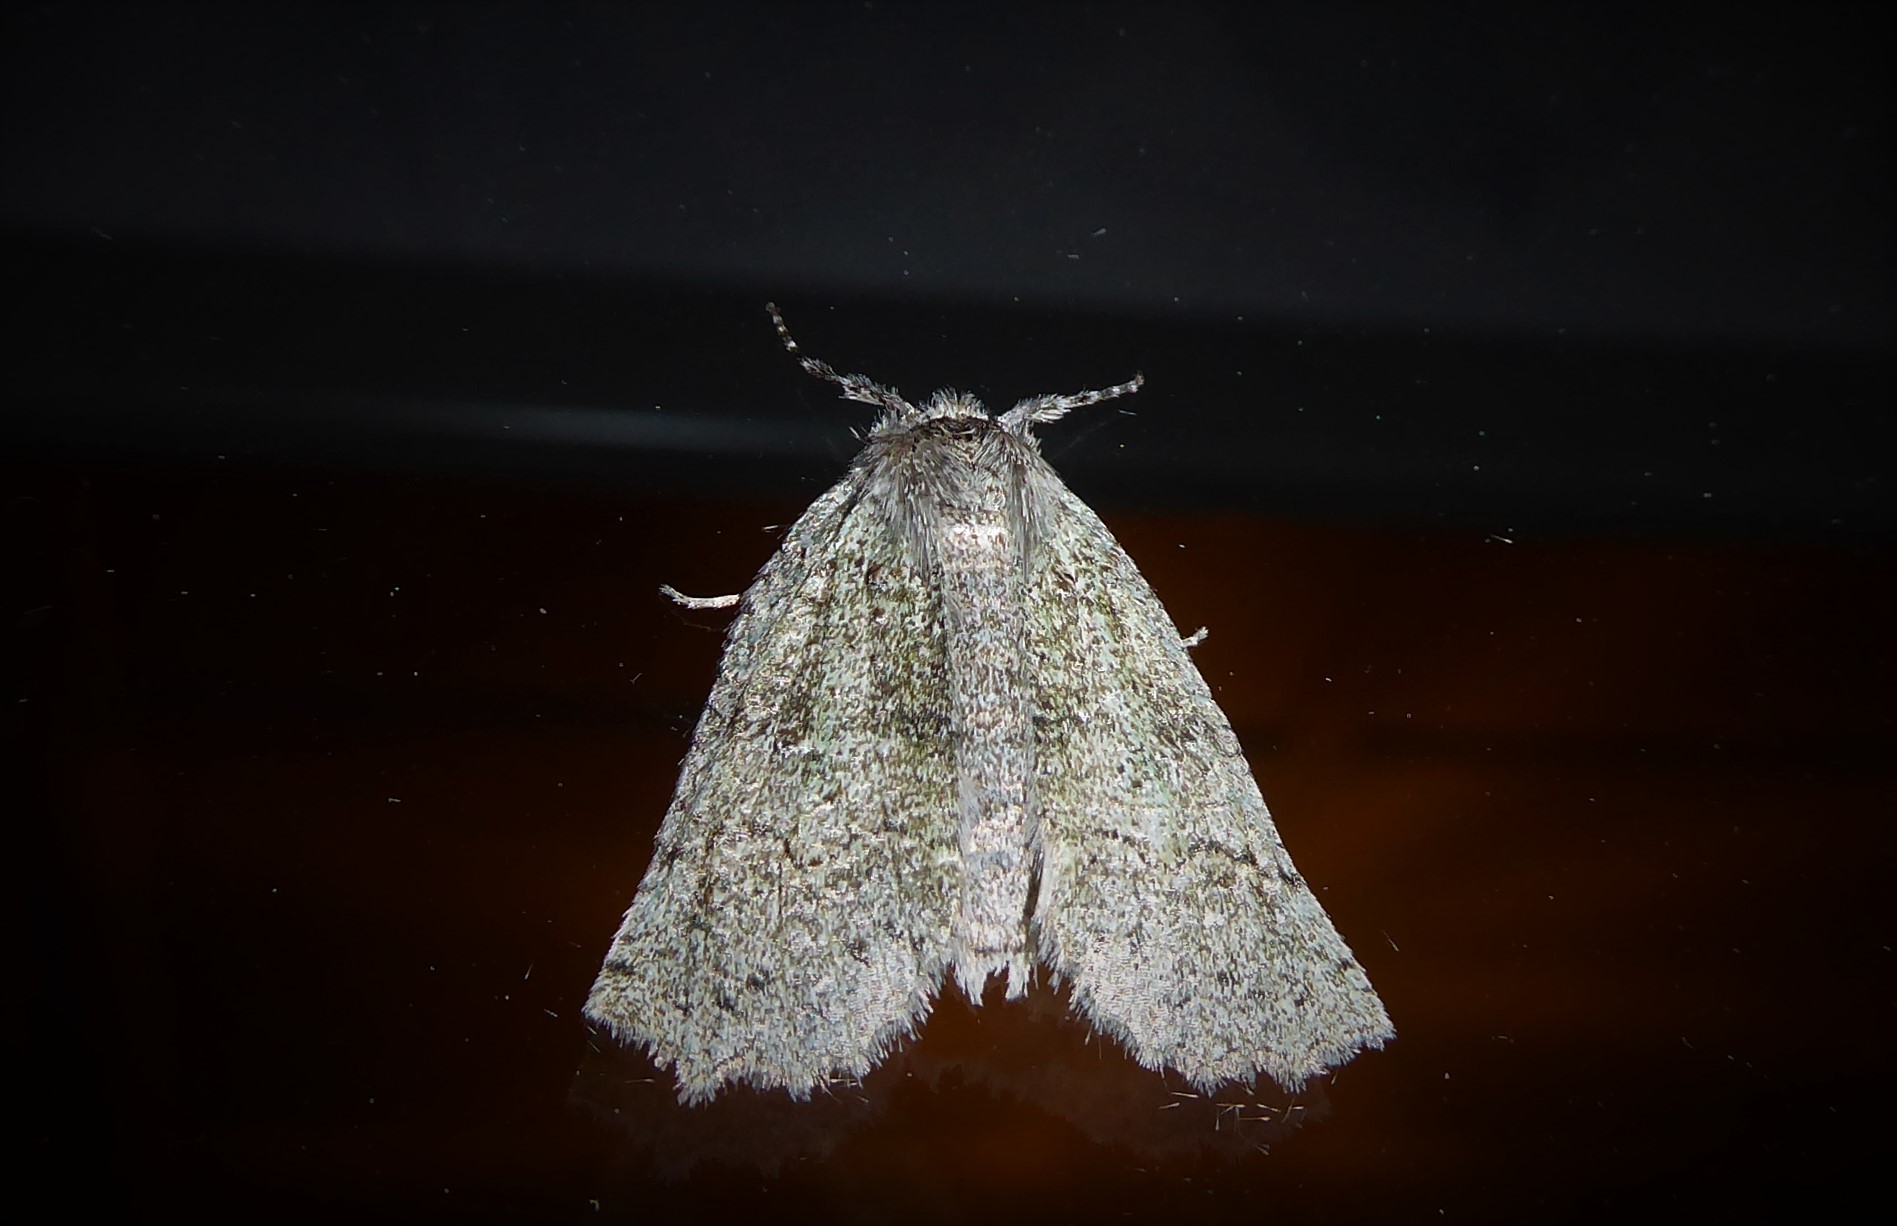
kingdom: Animalia
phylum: Arthropoda
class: Insecta
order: Lepidoptera
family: Geometridae
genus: Declana
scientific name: Declana floccosa
